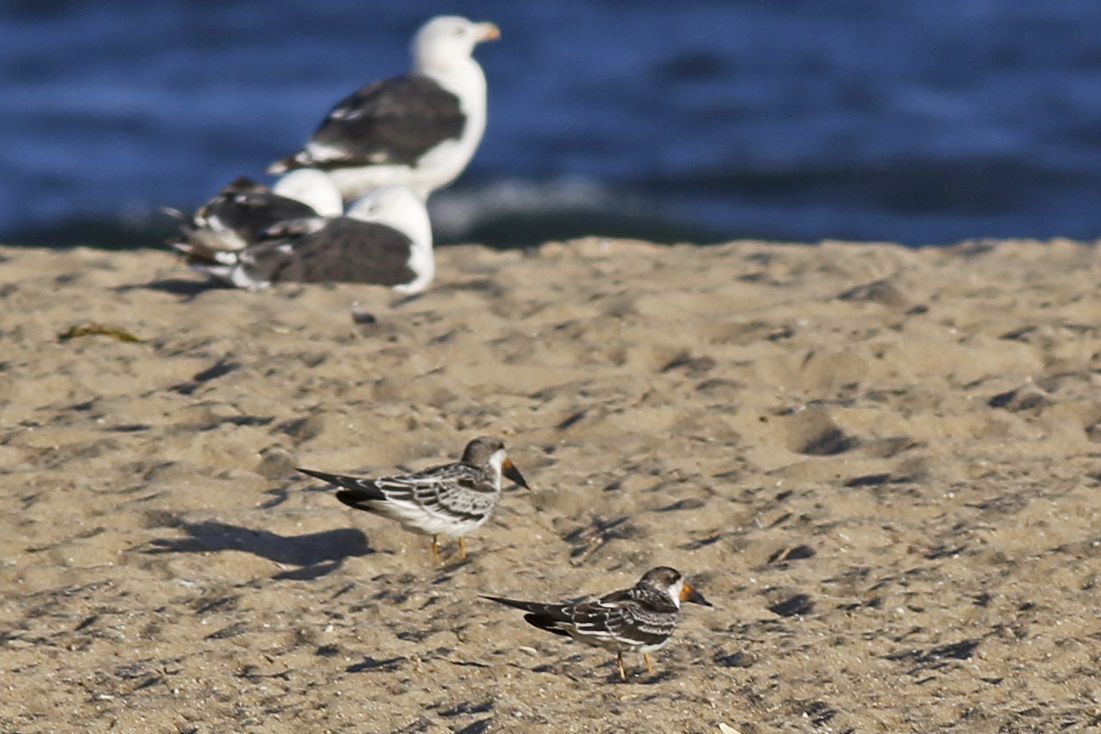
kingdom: Animalia
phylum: Chordata
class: Aves
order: Charadriiformes
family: Laridae
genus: Rynchops
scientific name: Rynchops niger
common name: Black skimmer
